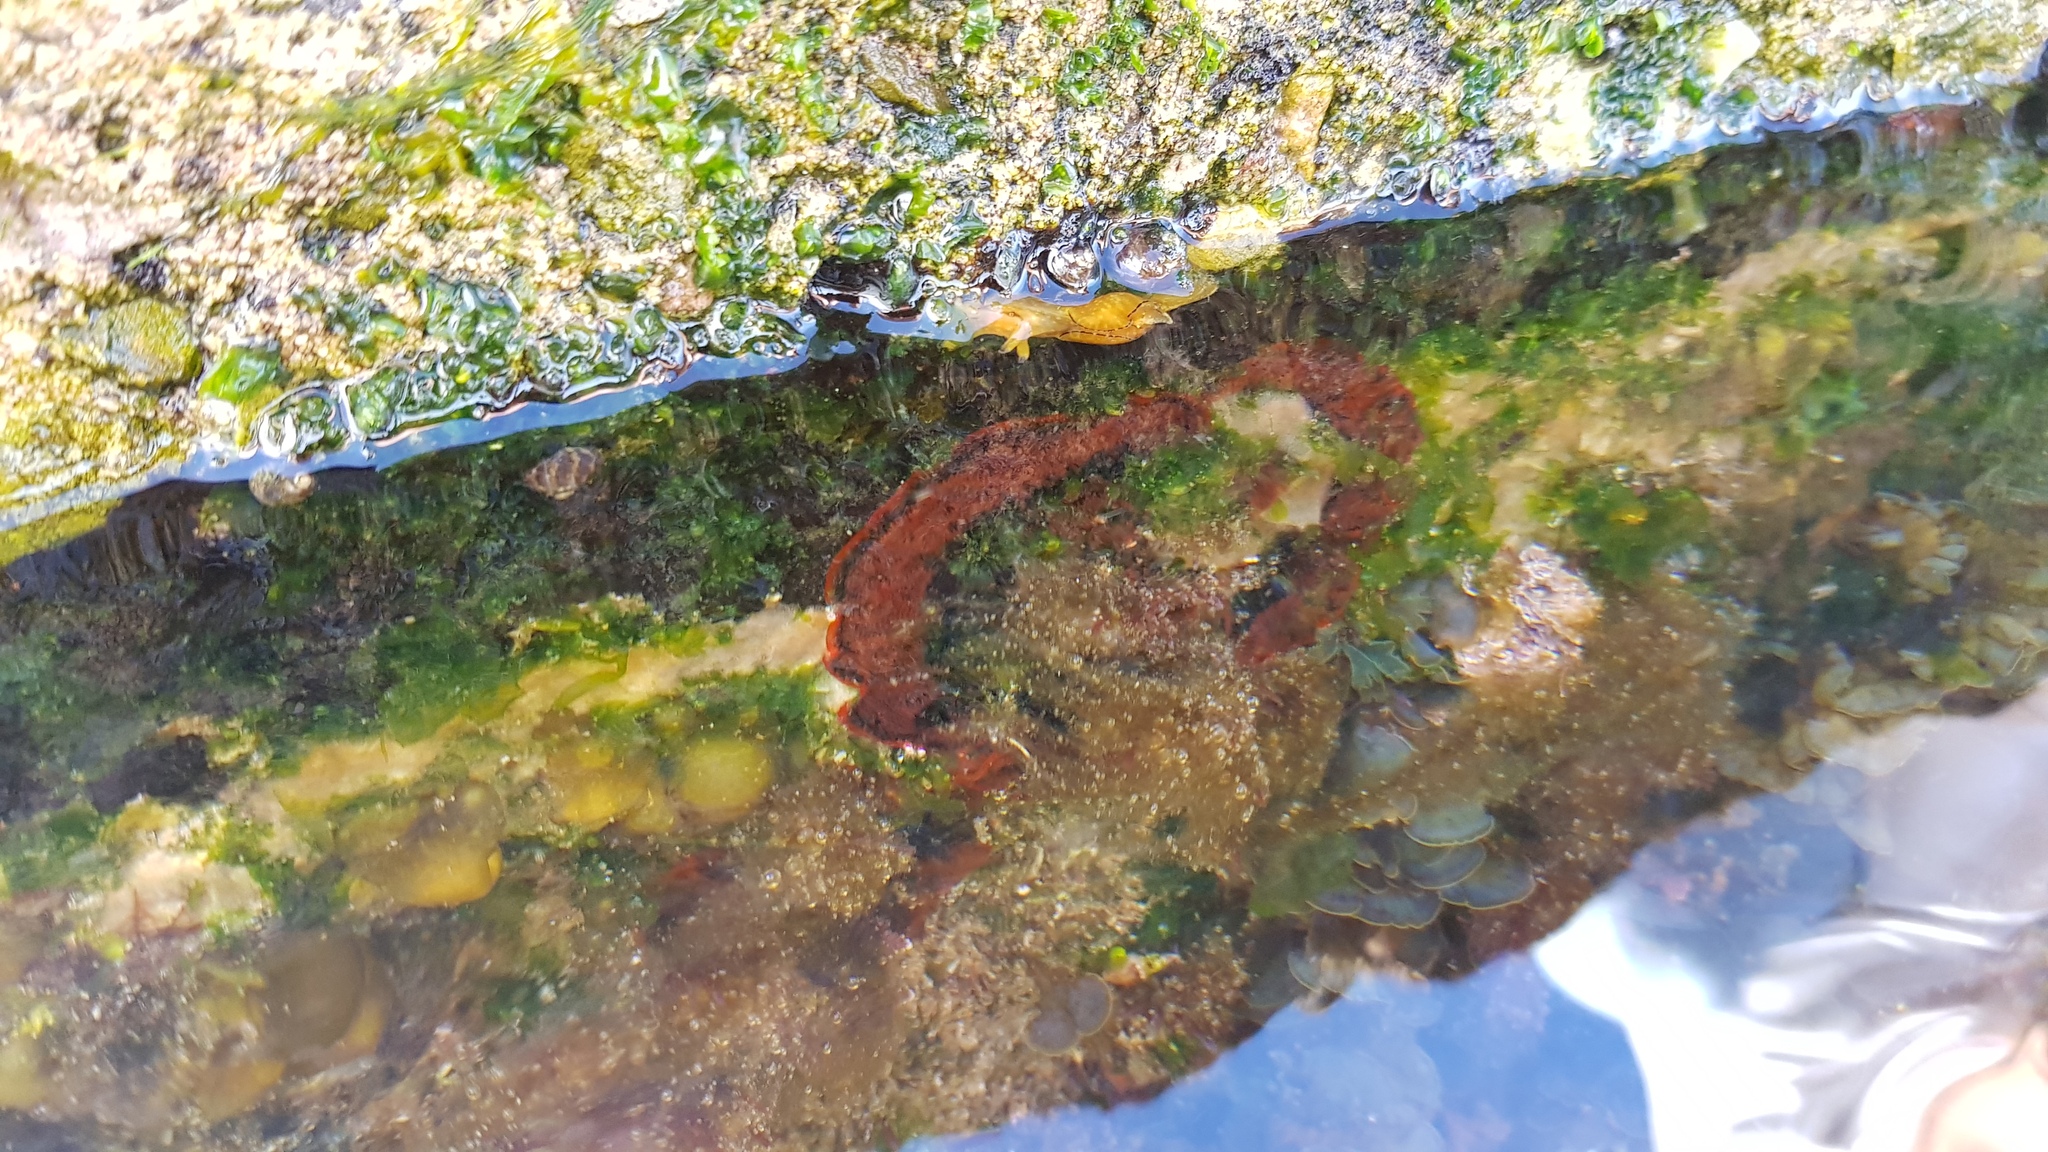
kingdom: Animalia
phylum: Mollusca
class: Gastropoda
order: Aplysiida
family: Aplysiidae
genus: Aplysia
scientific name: Aplysia concava
